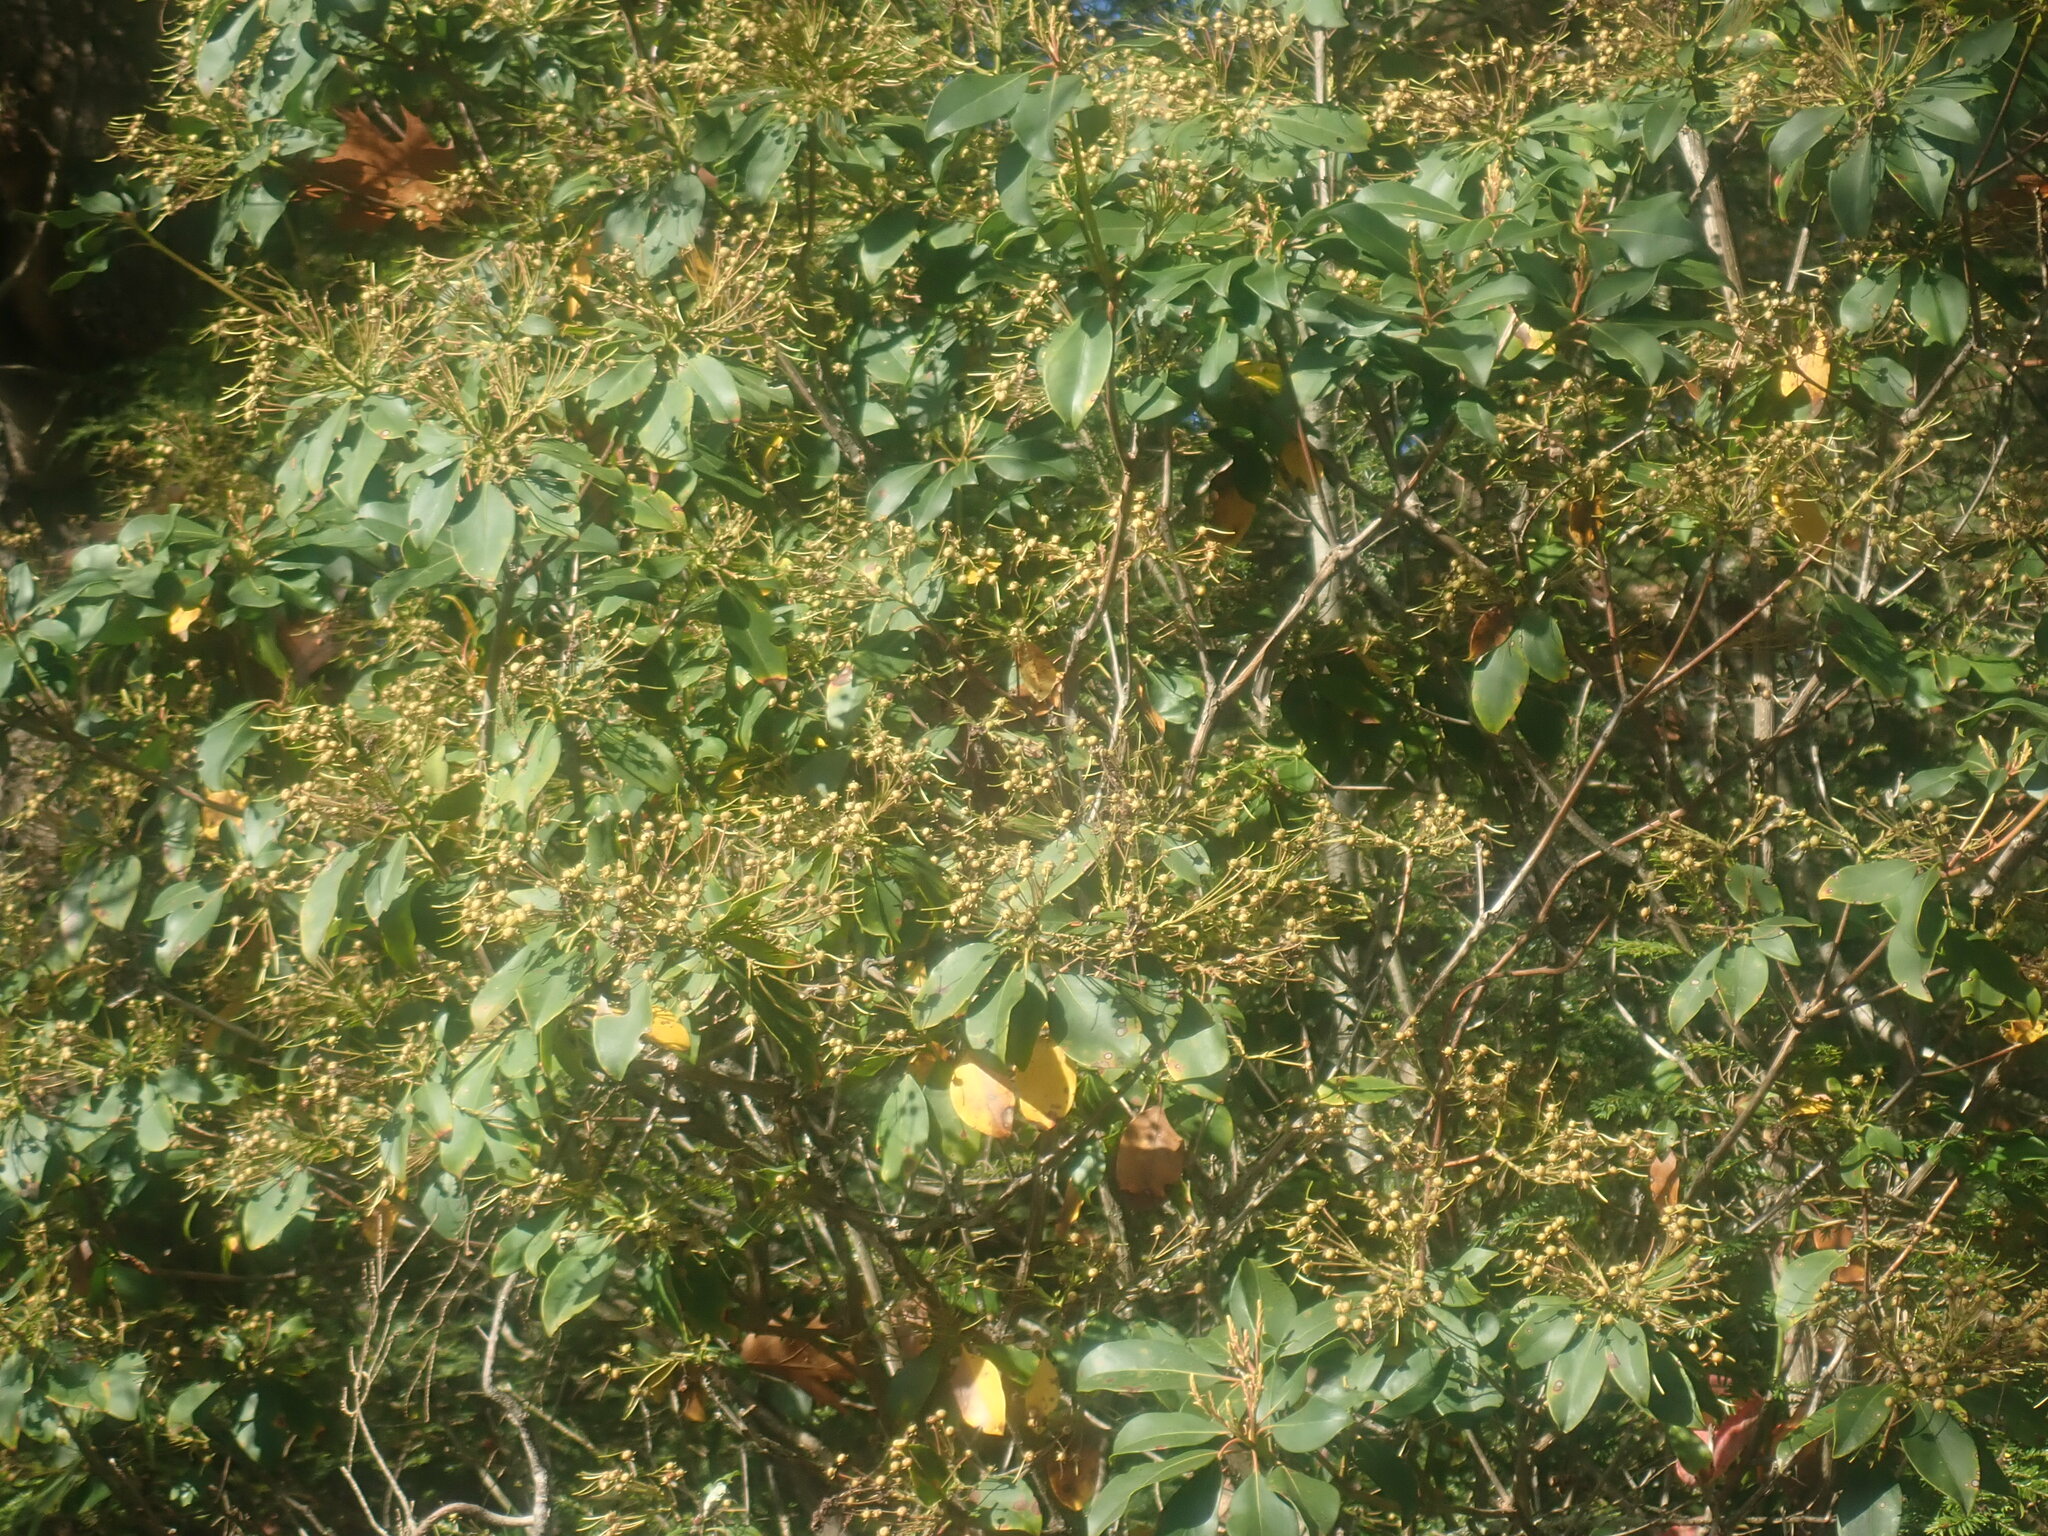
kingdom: Plantae
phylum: Tracheophyta
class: Magnoliopsida
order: Ericales
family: Ericaceae
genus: Kalmia
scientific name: Kalmia latifolia
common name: Mountain-laurel
